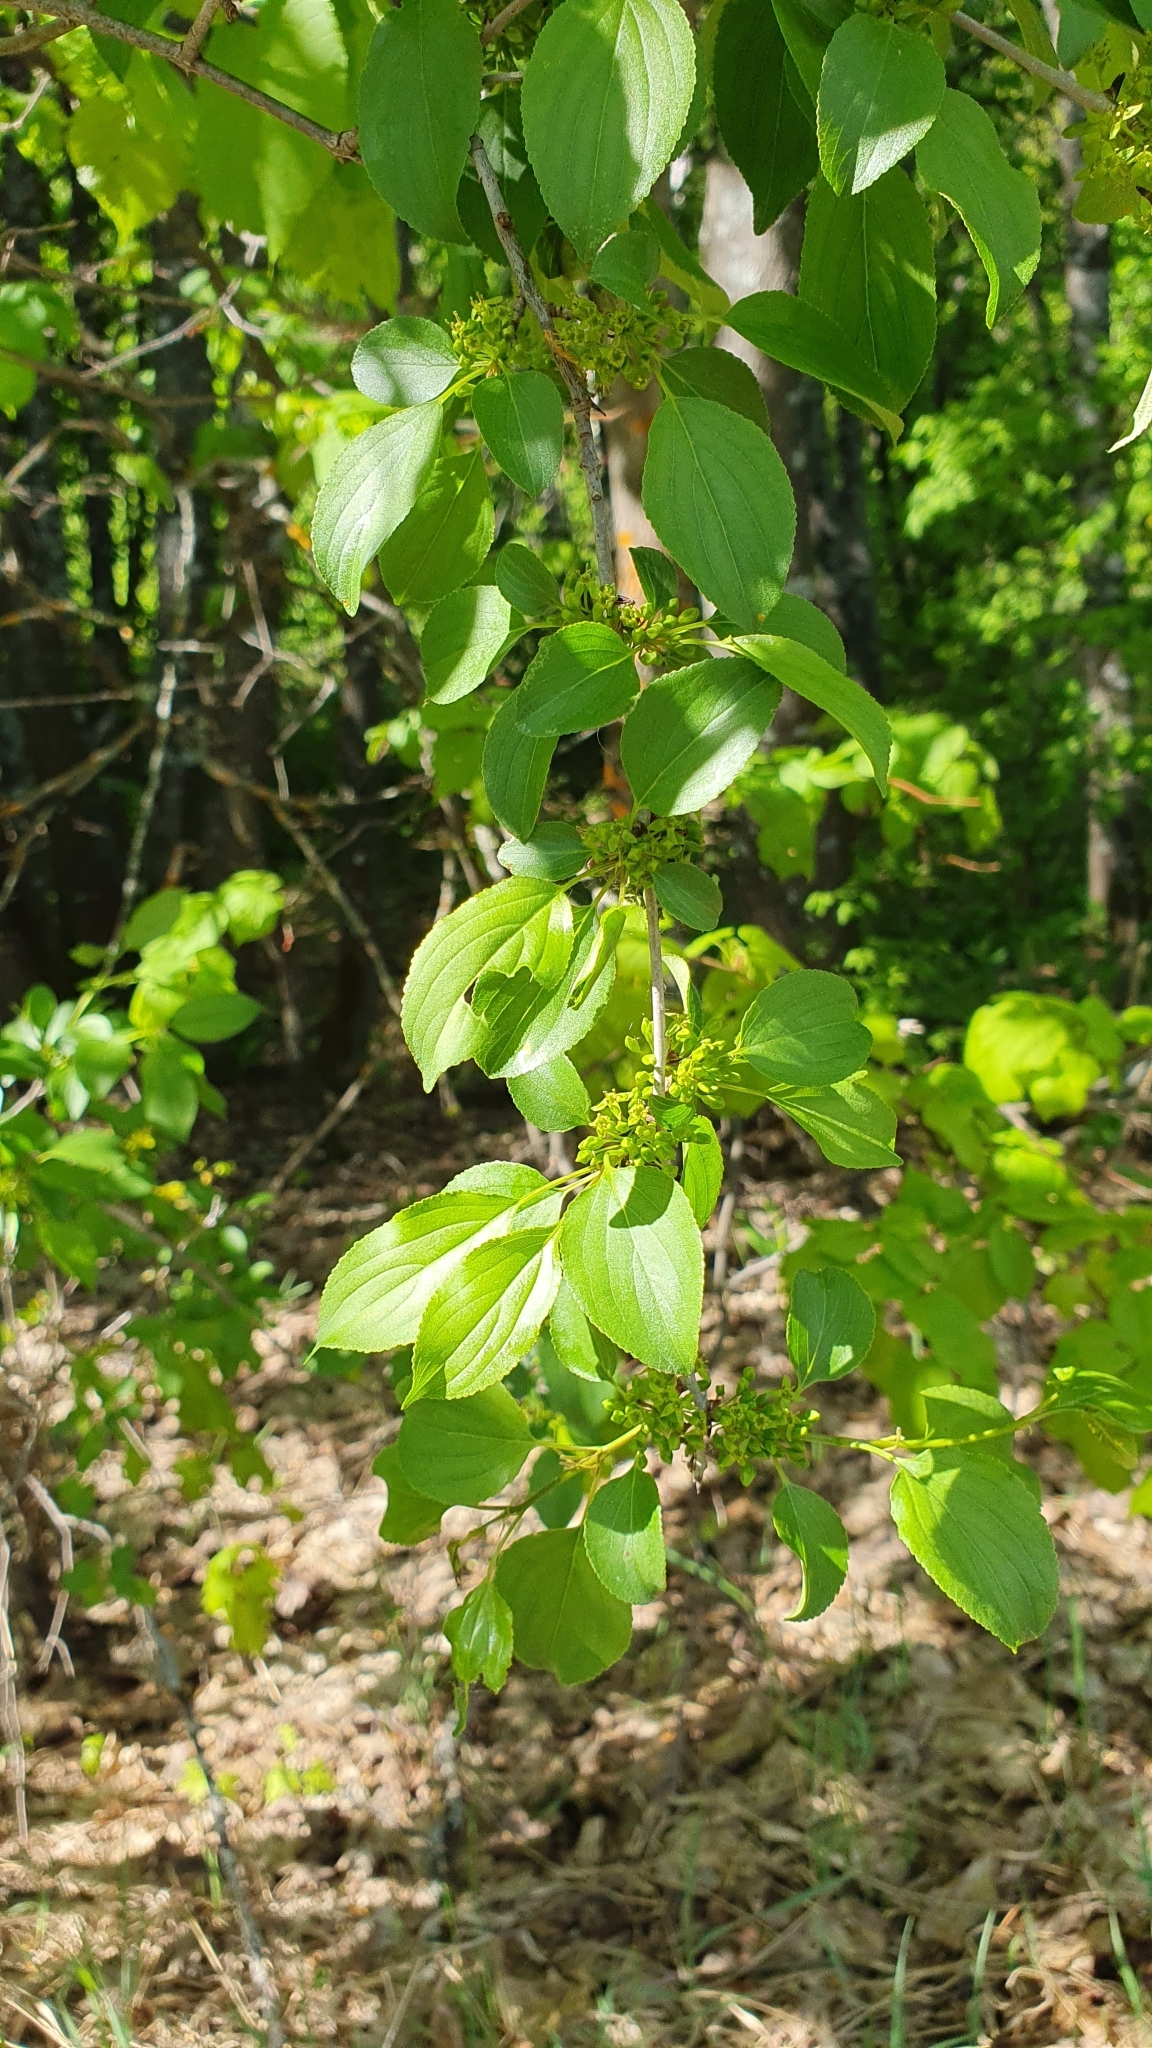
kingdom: Plantae
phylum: Tracheophyta
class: Magnoliopsida
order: Rosales
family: Rhamnaceae
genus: Rhamnus
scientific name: Rhamnus cathartica
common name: Common buckthorn
